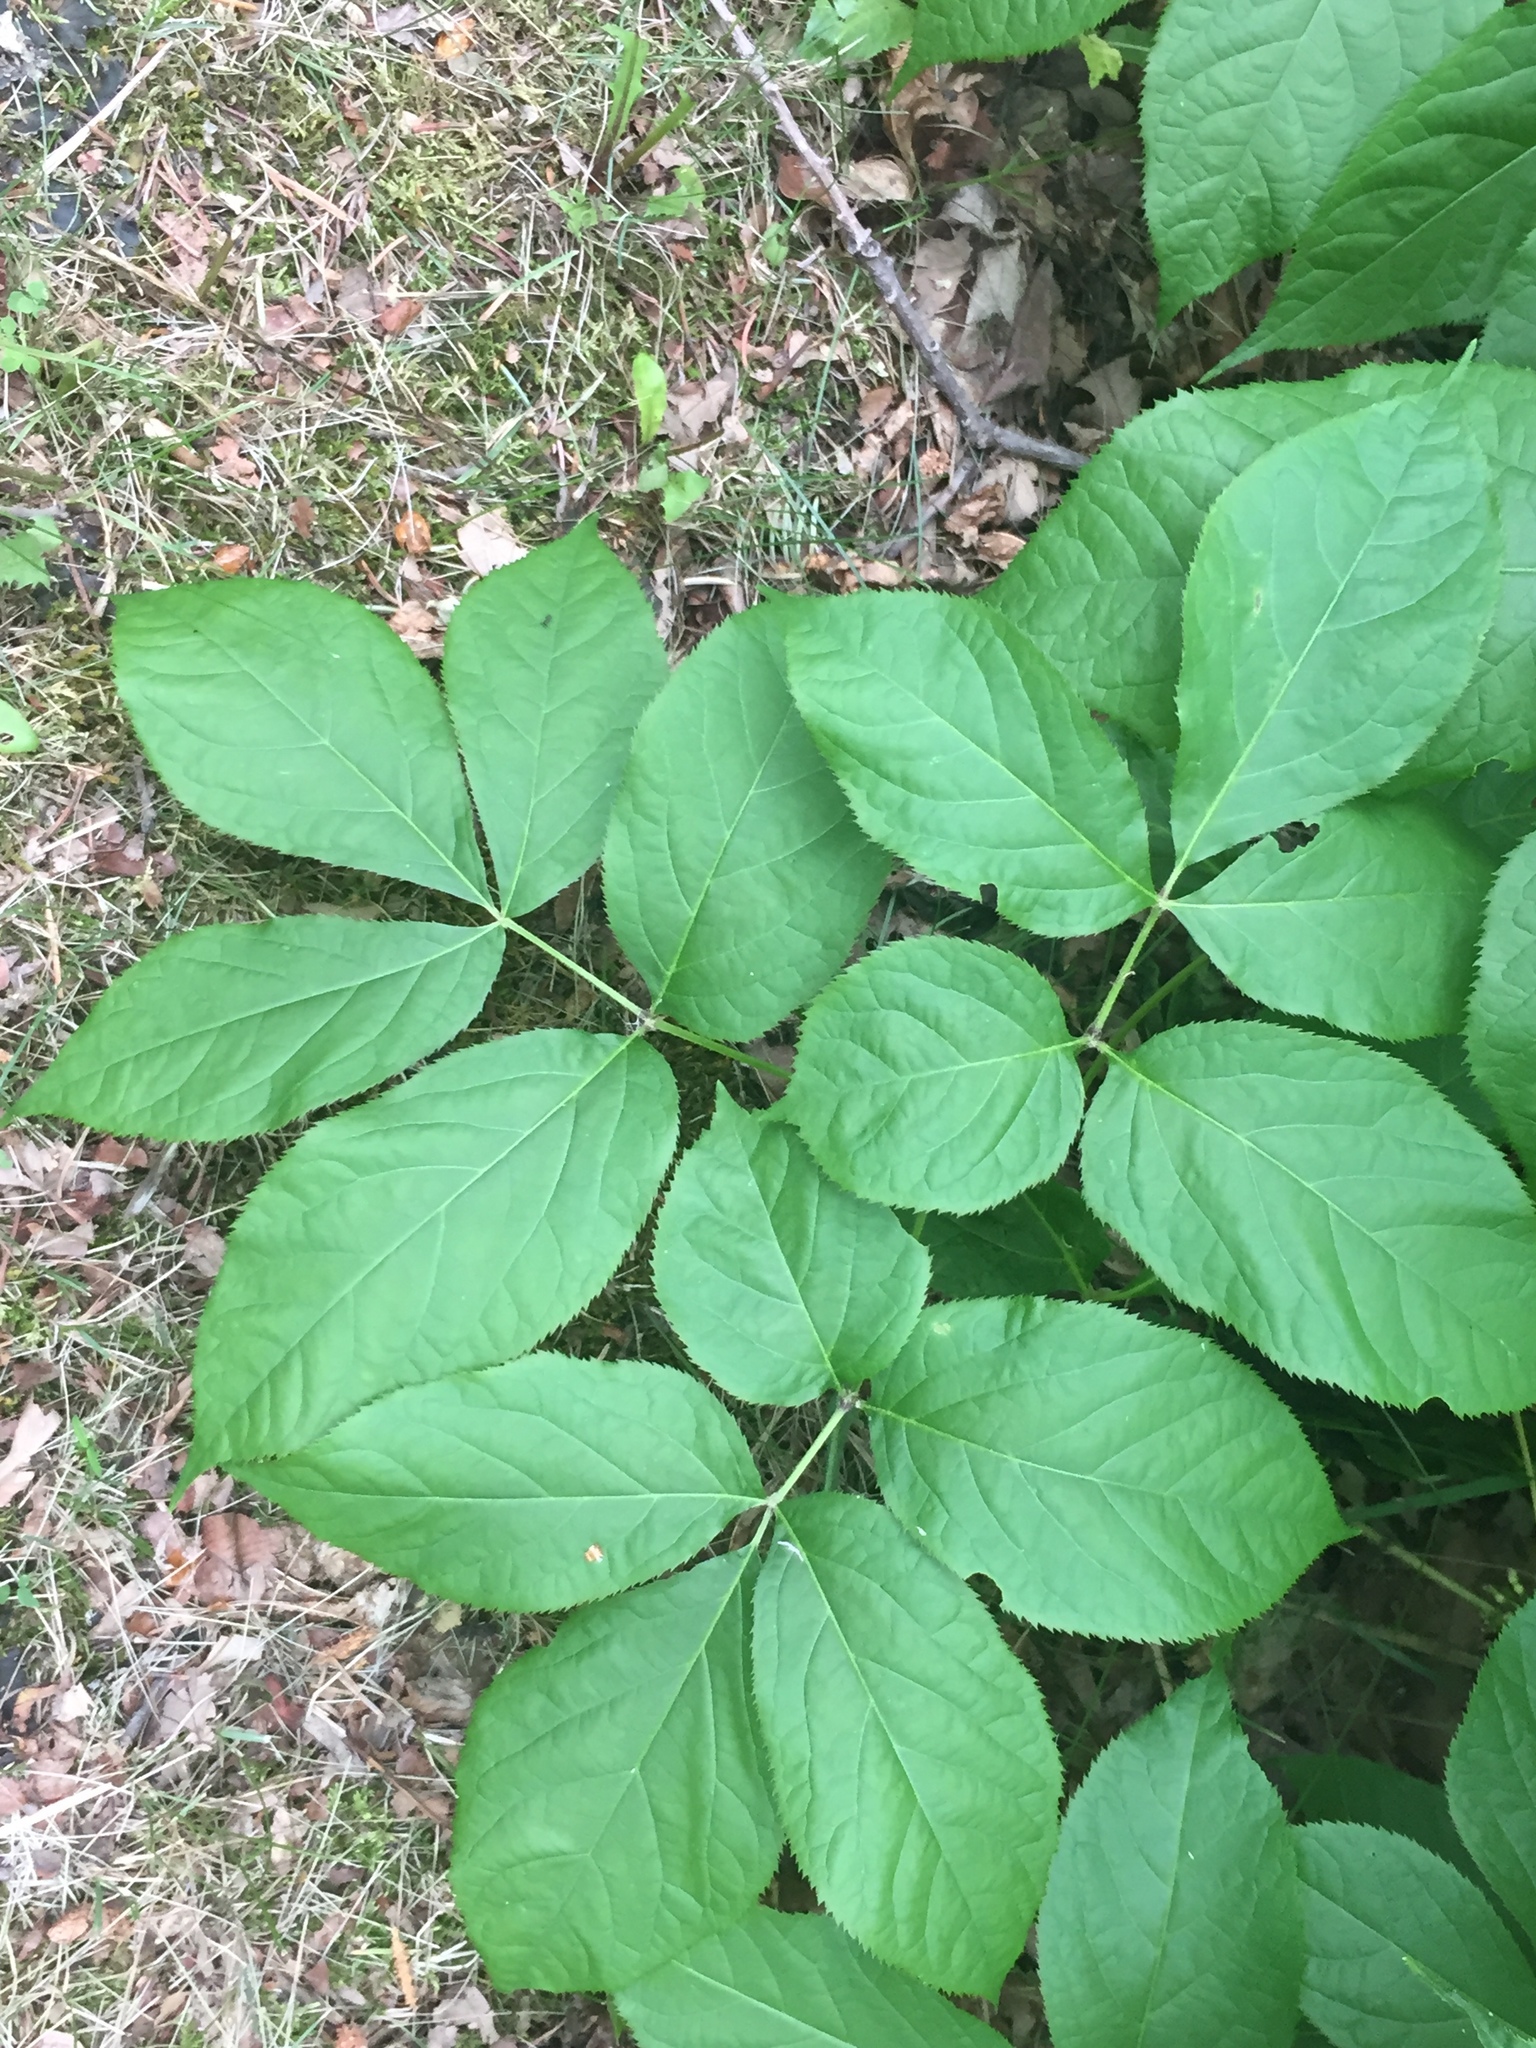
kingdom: Plantae
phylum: Tracheophyta
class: Magnoliopsida
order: Apiales
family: Araliaceae
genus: Aralia
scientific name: Aralia nudicaulis
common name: Wild sarsaparilla
